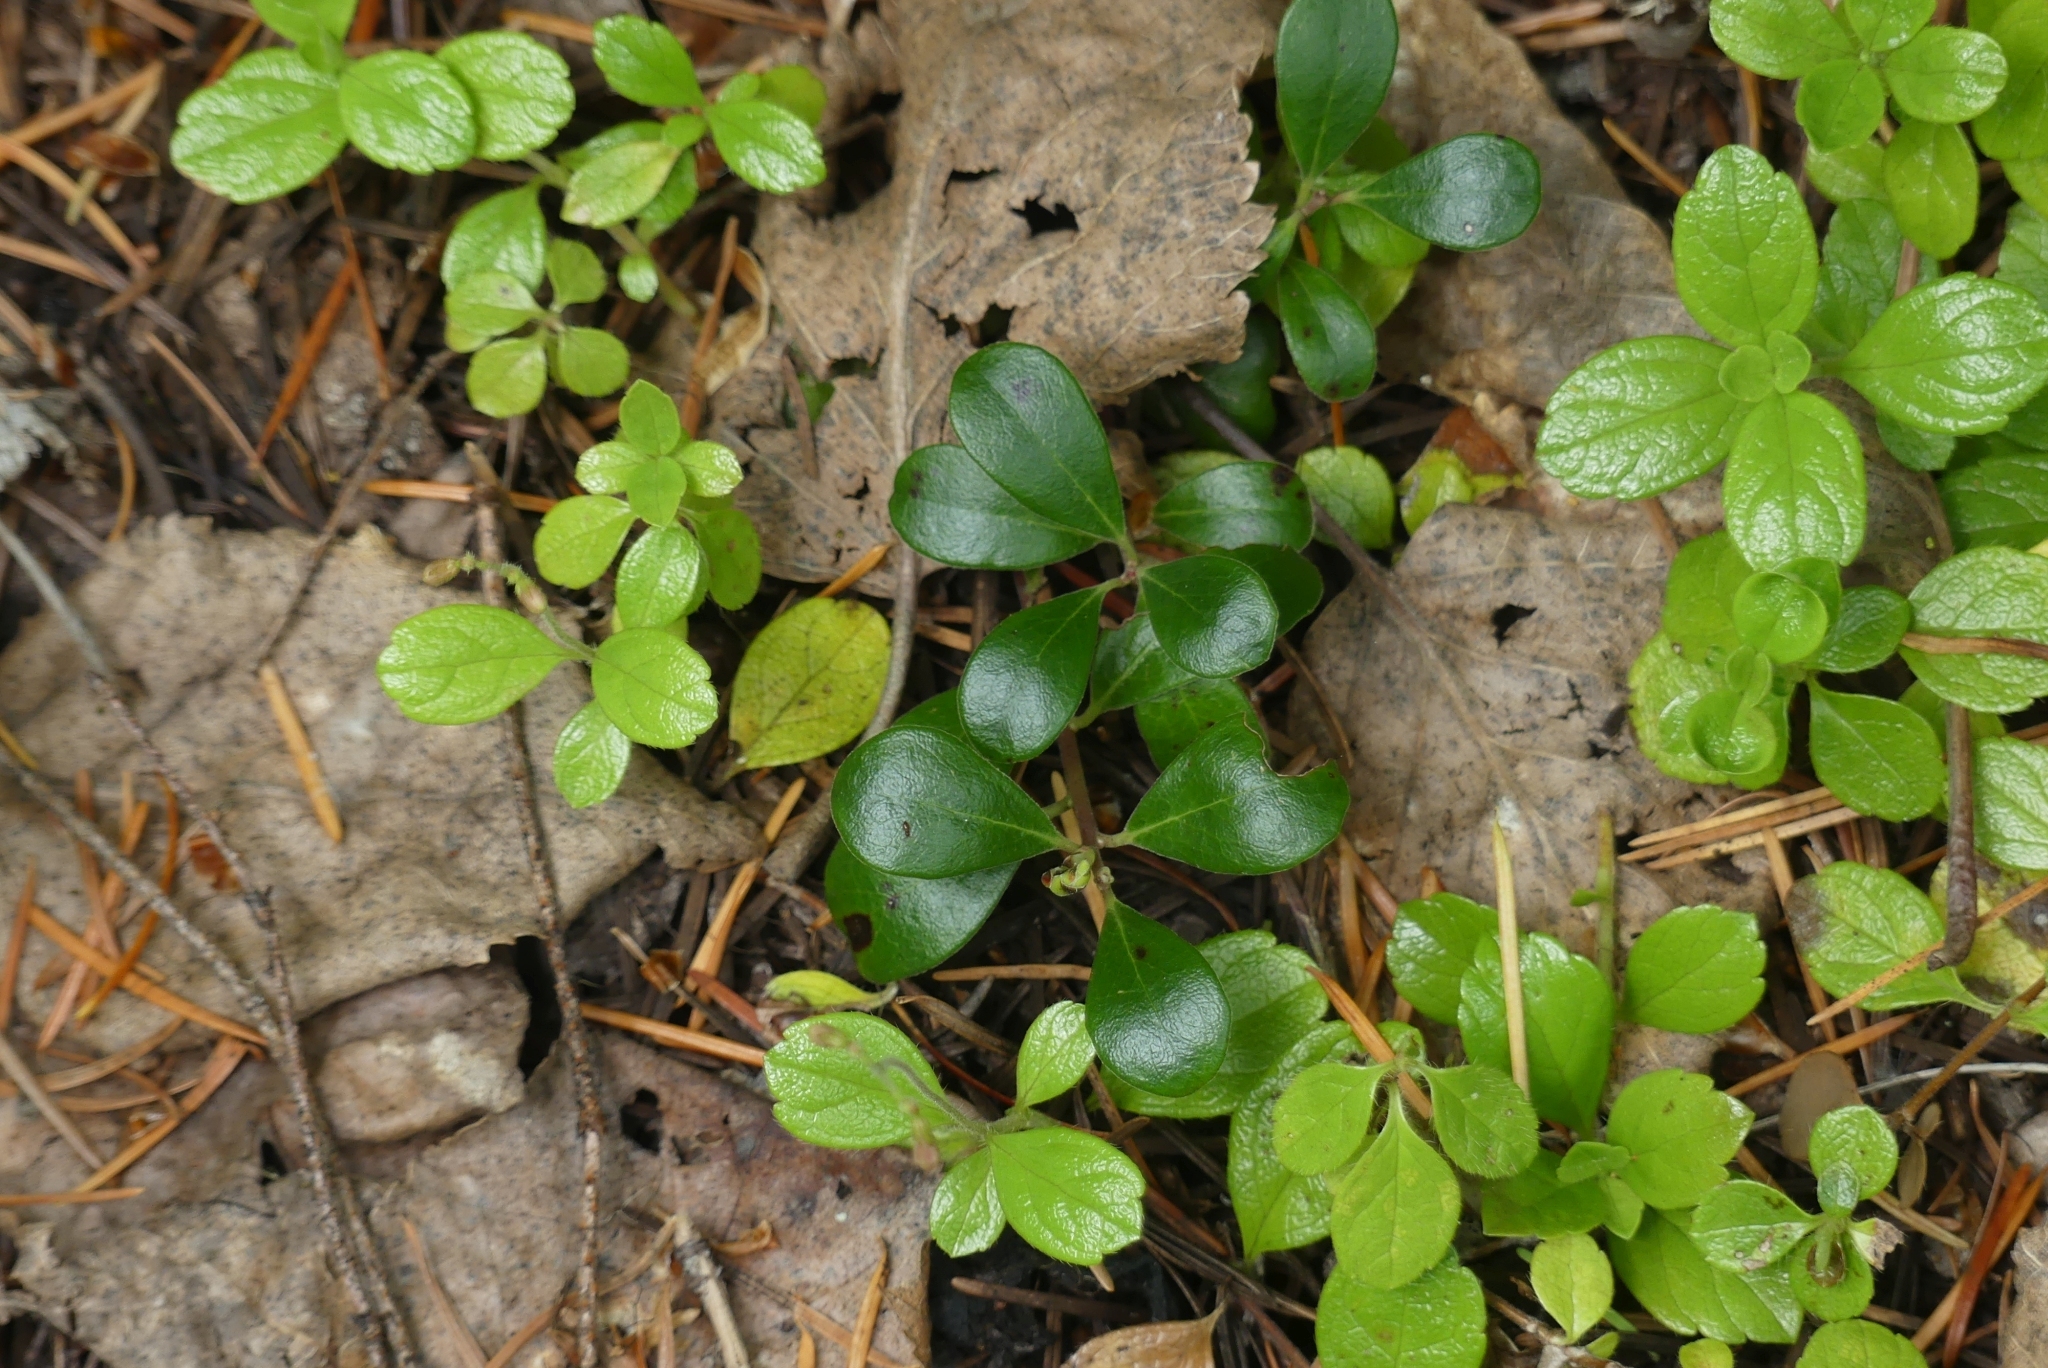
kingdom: Plantae
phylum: Tracheophyta
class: Magnoliopsida
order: Ericales
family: Ericaceae
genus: Arctostaphylos
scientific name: Arctostaphylos uva-ursi
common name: Bearberry
